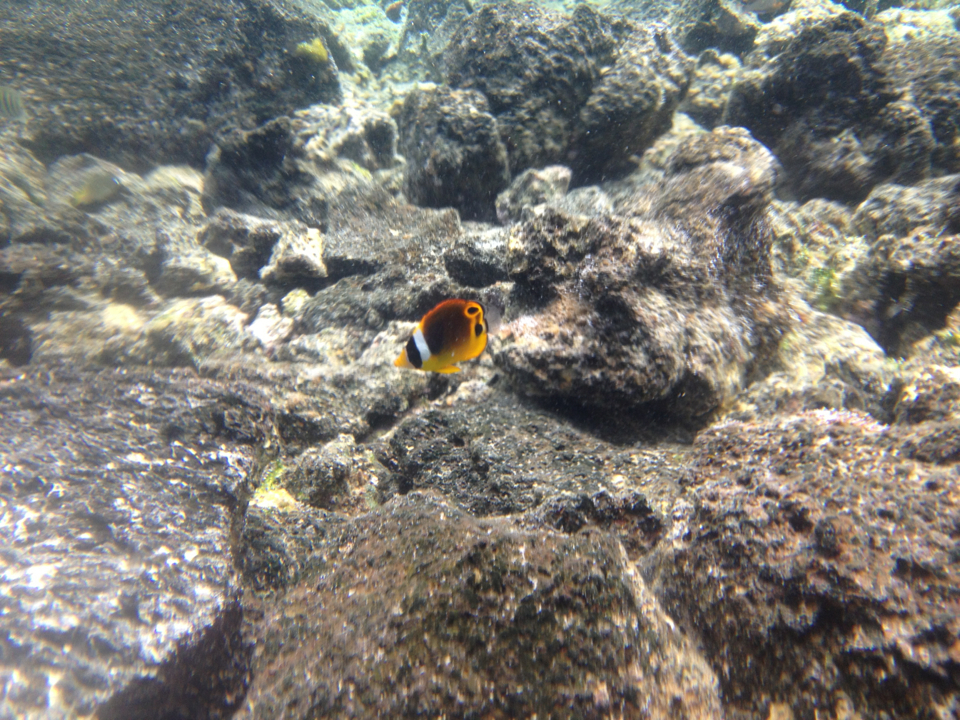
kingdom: Animalia
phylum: Chordata
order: Perciformes
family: Chaetodontidae
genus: Chaetodon
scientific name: Chaetodon lunula
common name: Raccoon butterflyfish
